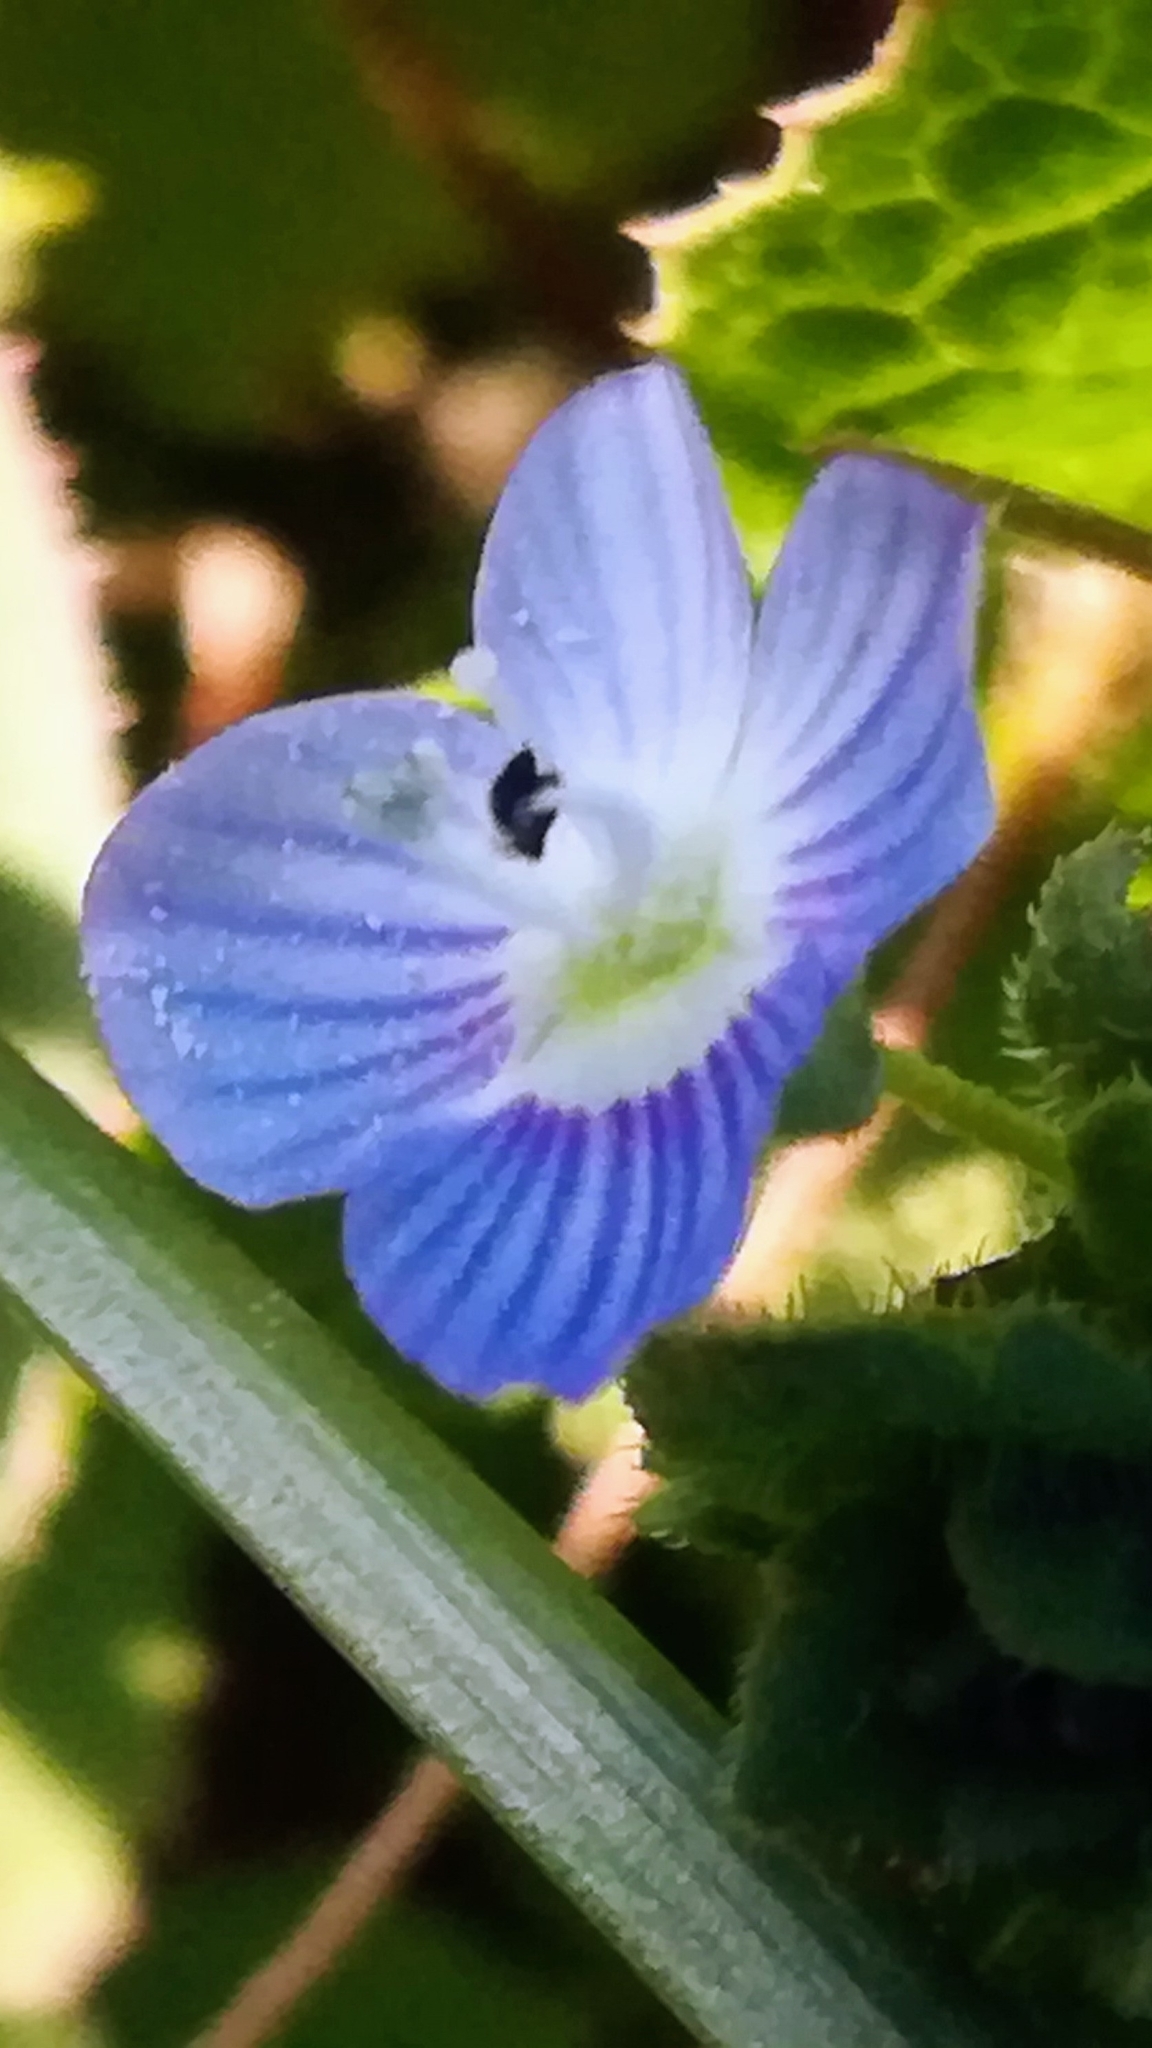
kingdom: Plantae
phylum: Tracheophyta
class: Magnoliopsida
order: Lamiales
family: Plantaginaceae
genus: Veronica
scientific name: Veronica persica
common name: Common field-speedwell
